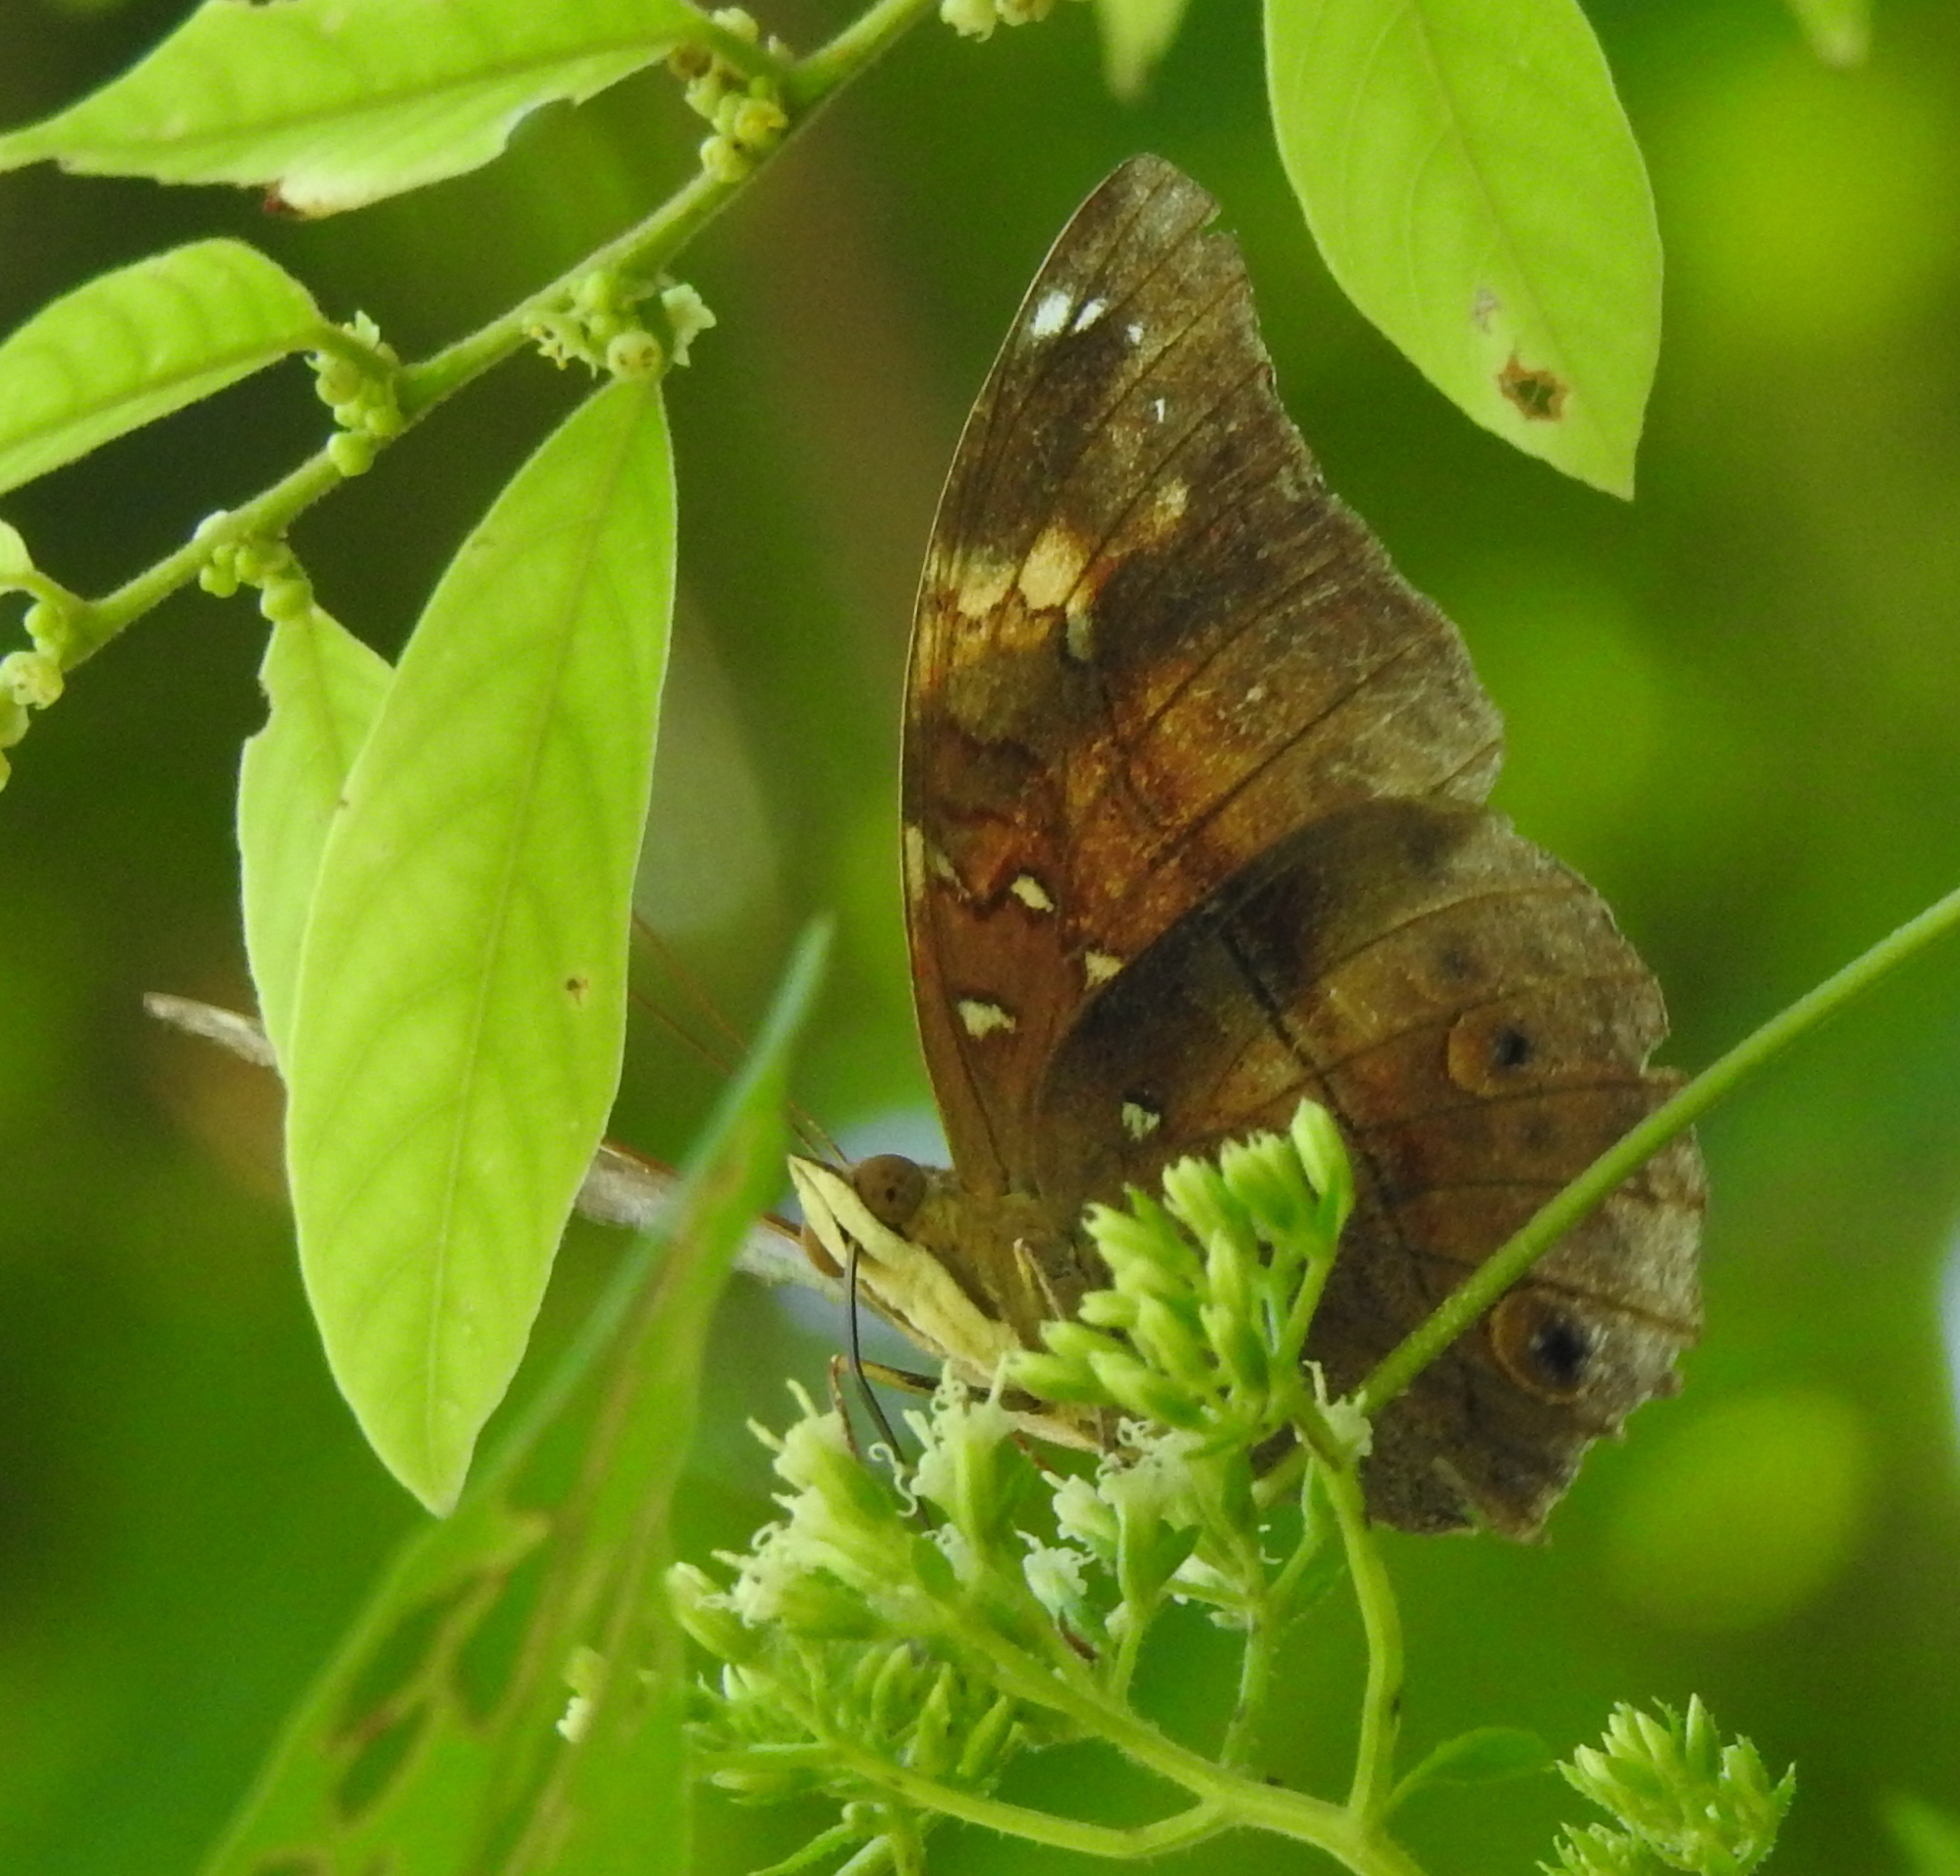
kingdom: Animalia
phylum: Arthropoda
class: Insecta
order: Lepidoptera
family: Nymphalidae
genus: Doleschallia
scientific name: Doleschallia bisaltide
